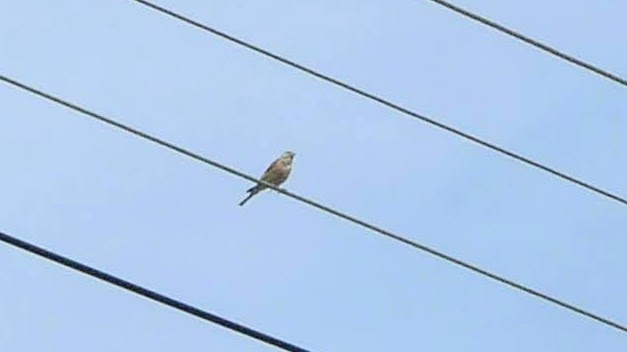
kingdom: Animalia
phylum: Chordata
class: Aves
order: Passeriformes
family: Fringillidae
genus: Linaria
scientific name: Linaria cannabina
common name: Common linnet
